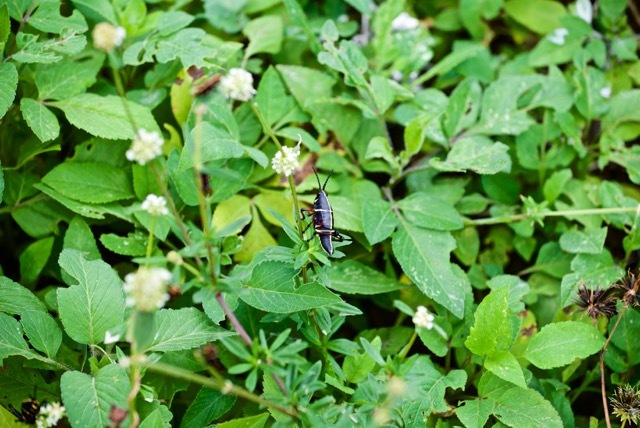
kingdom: Animalia
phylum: Arthropoda
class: Insecta
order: Orthoptera
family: Romaleidae
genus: Romalea
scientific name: Romalea microptera
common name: Eastern lubber grasshopper
